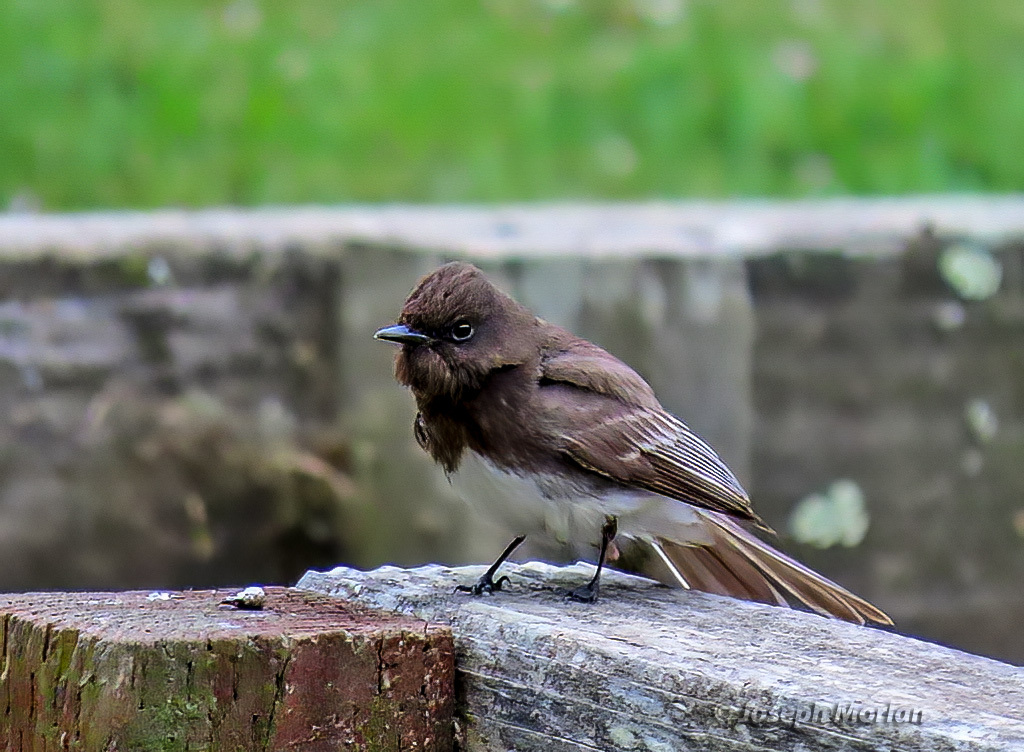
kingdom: Animalia
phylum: Chordata
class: Aves
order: Passeriformes
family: Tyrannidae
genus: Sayornis
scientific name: Sayornis nigricans
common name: Black phoebe
